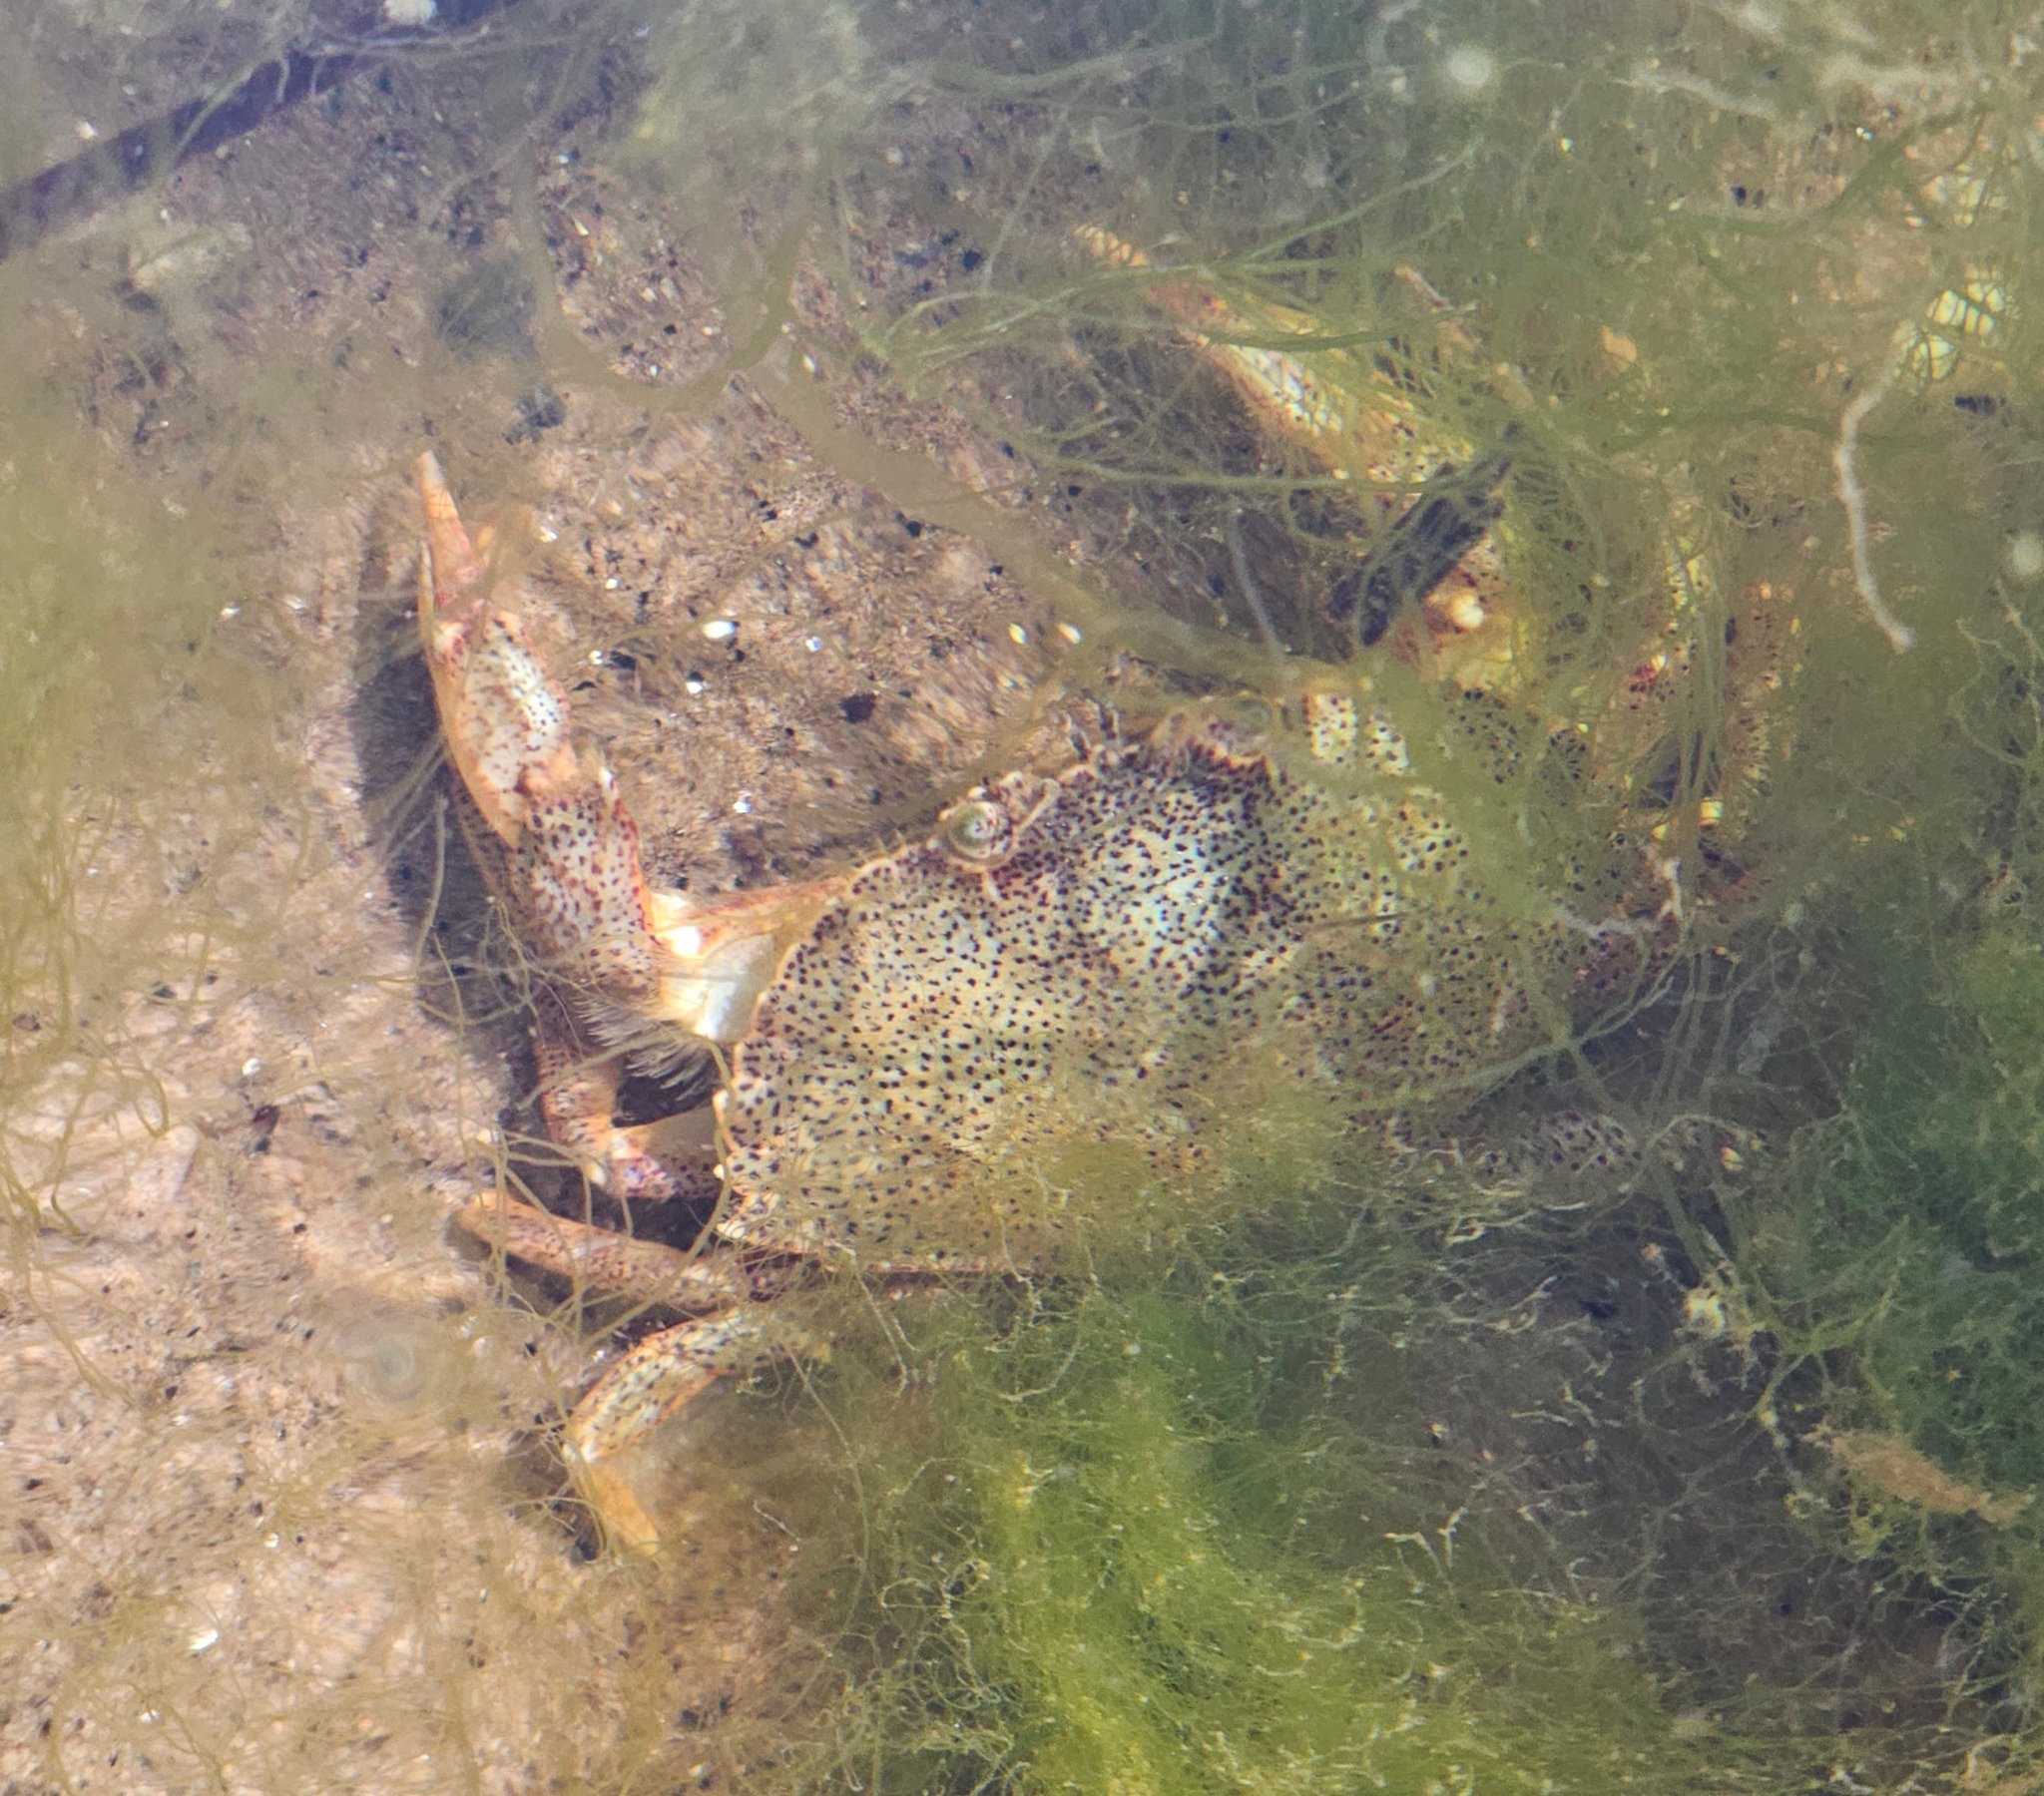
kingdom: Animalia
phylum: Arthropoda
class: Malacostraca
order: Decapoda
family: Cancridae
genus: Cancer
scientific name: Cancer irroratus
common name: Atlantic rock crab
